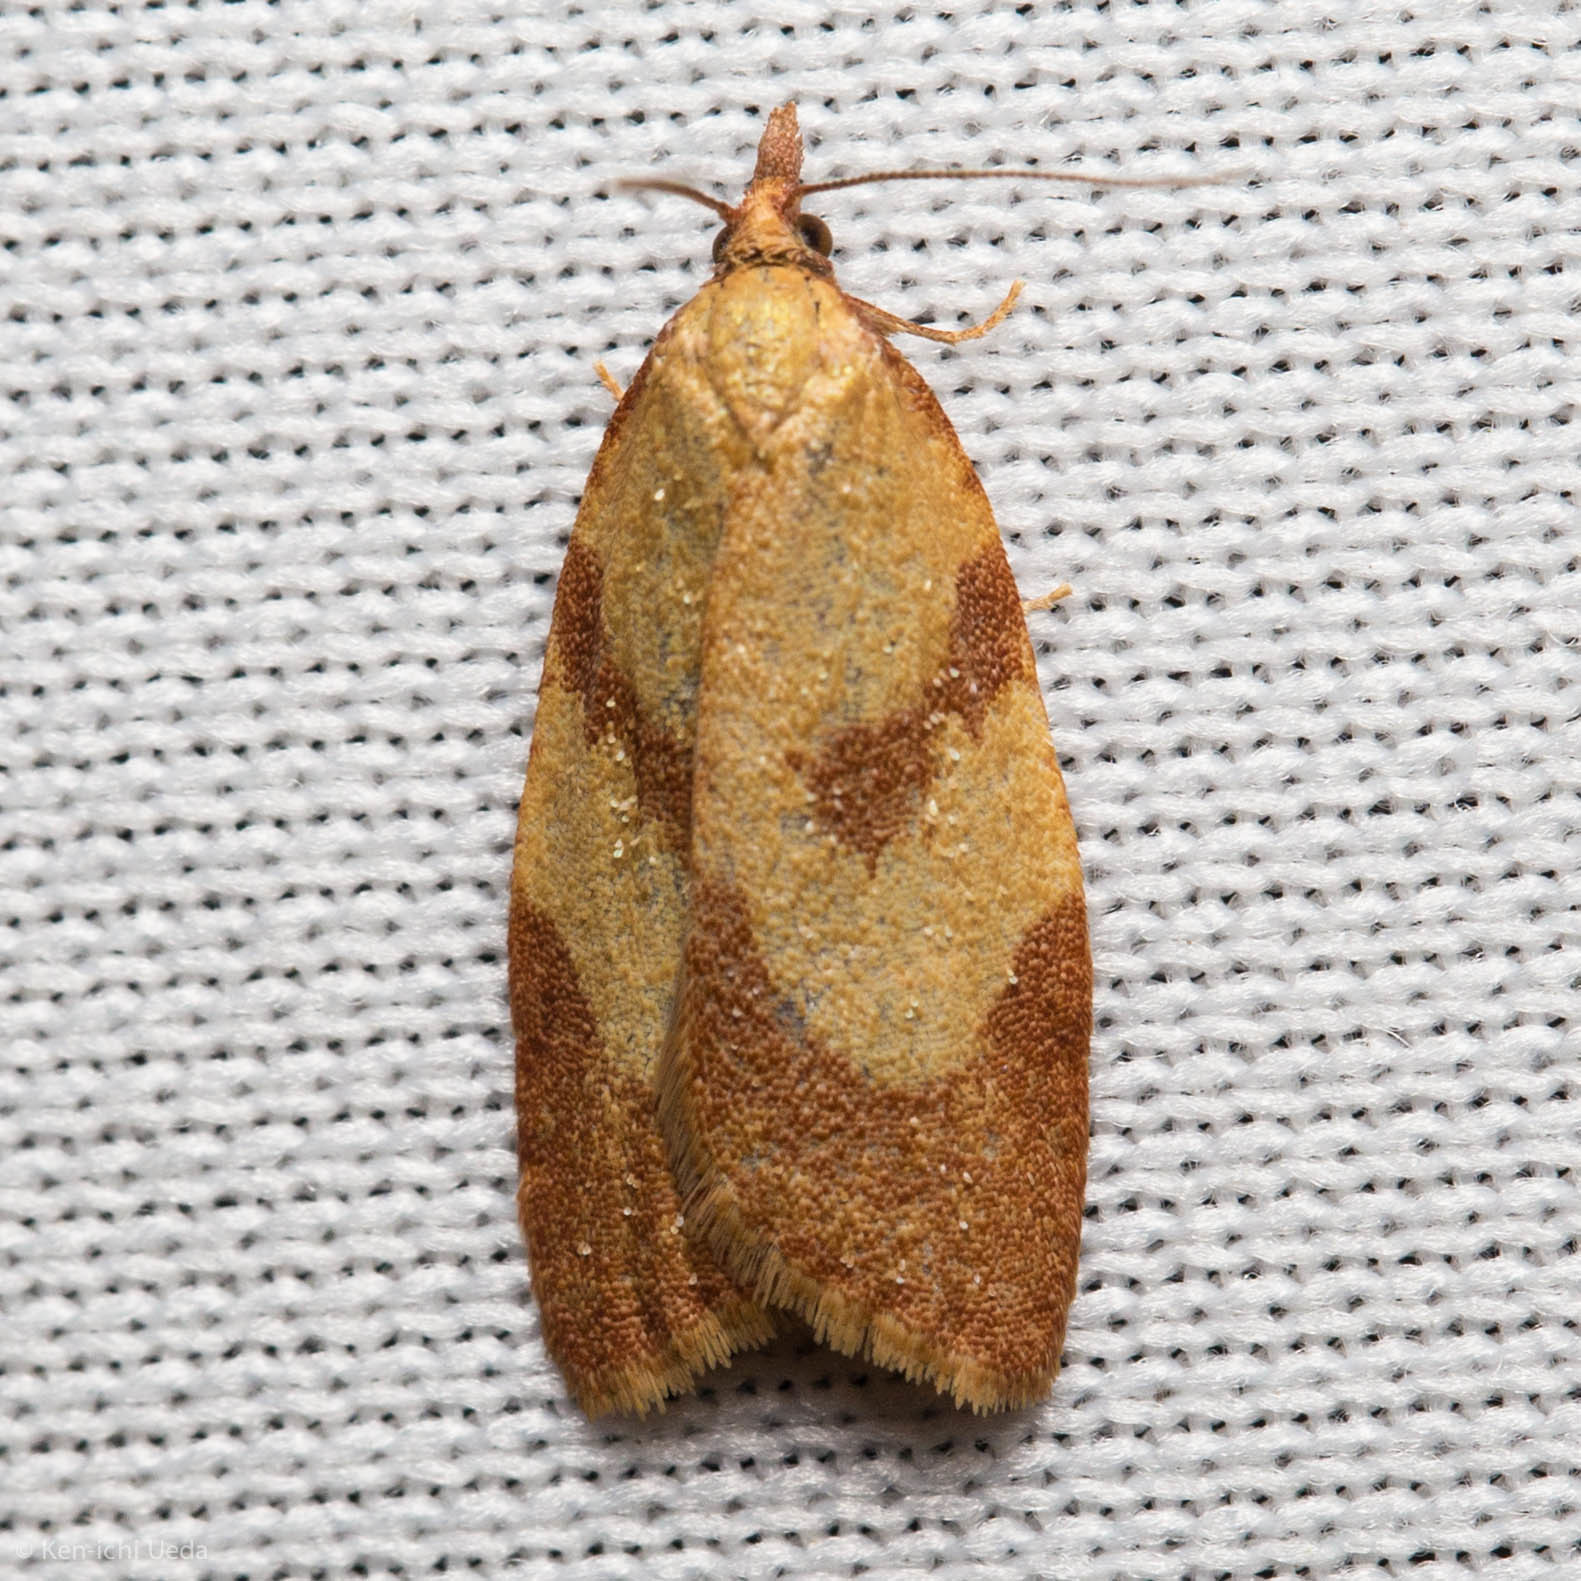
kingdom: Animalia
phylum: Arthropoda
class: Insecta
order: Lepidoptera
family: Tortricidae
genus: Sparganothis
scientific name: Sparganothis senecionana
